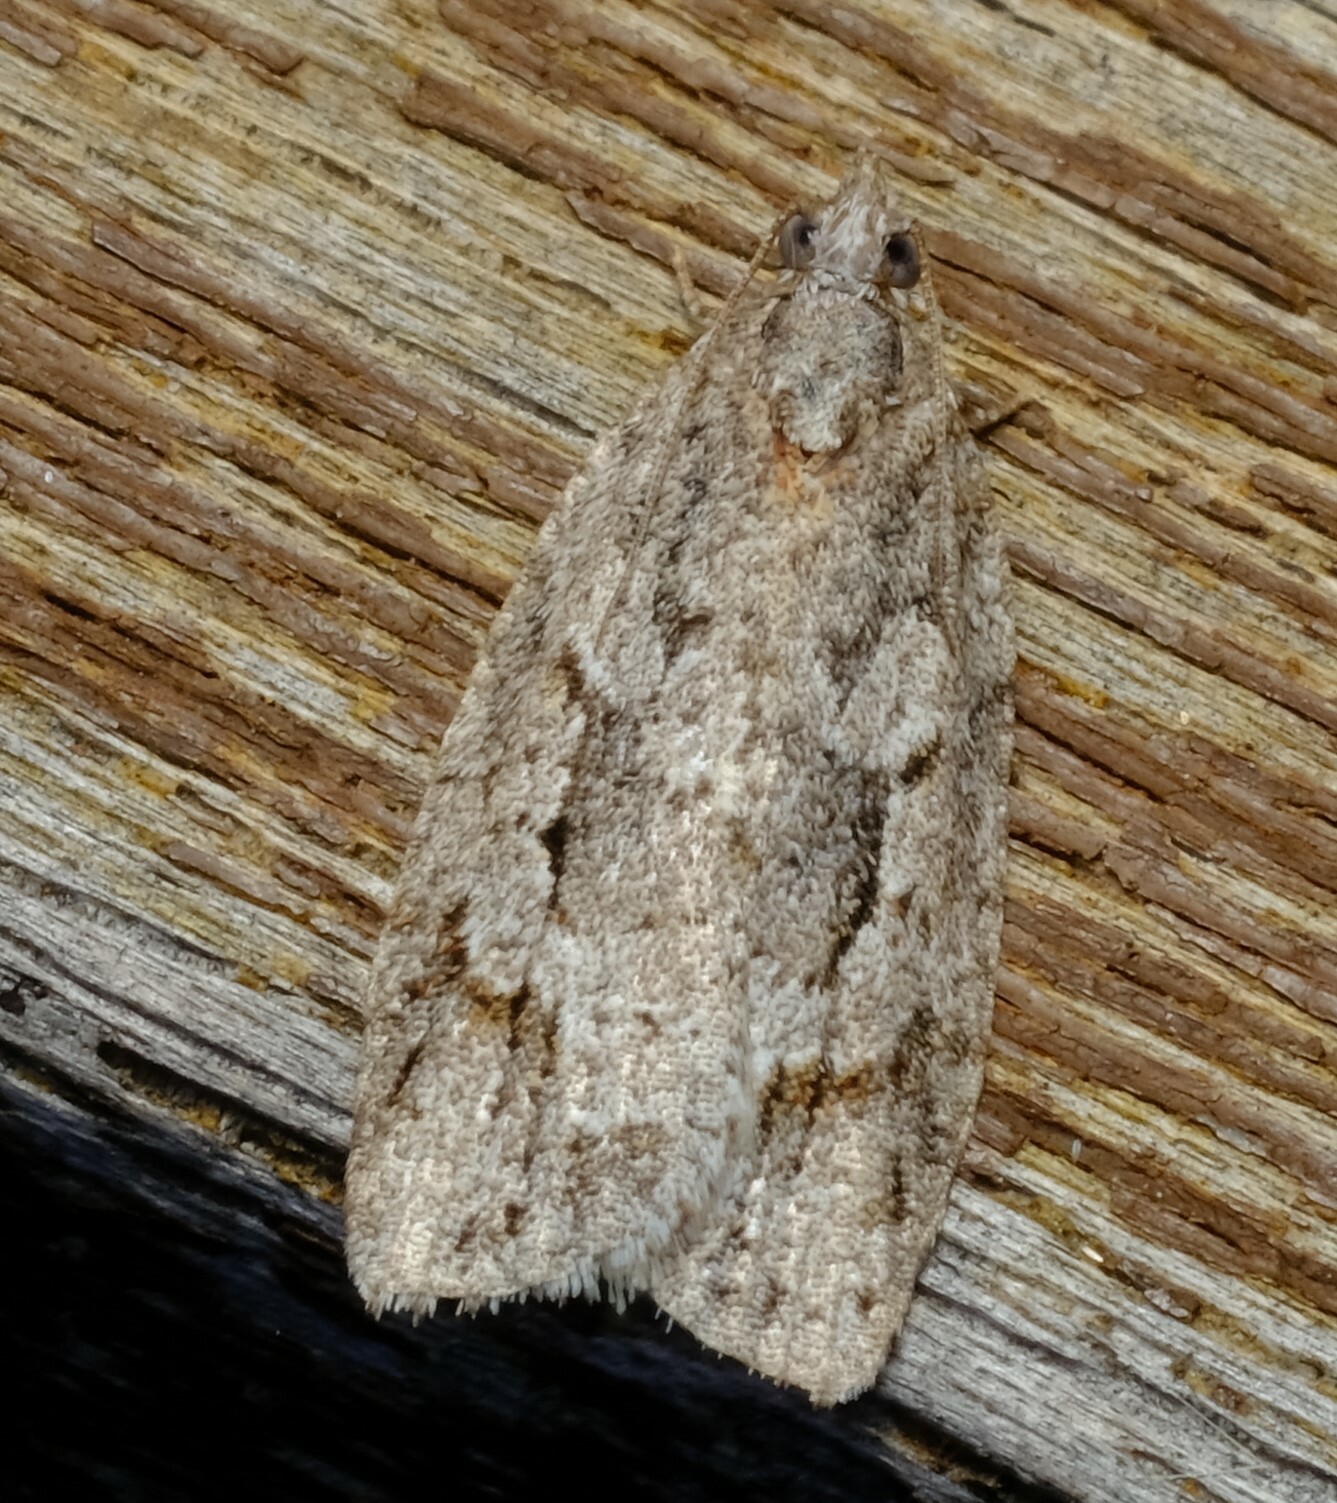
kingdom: Animalia
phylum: Arthropoda
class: Insecta
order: Lepidoptera
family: Tortricidae
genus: Acropolitis
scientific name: Acropolitis rudisana
